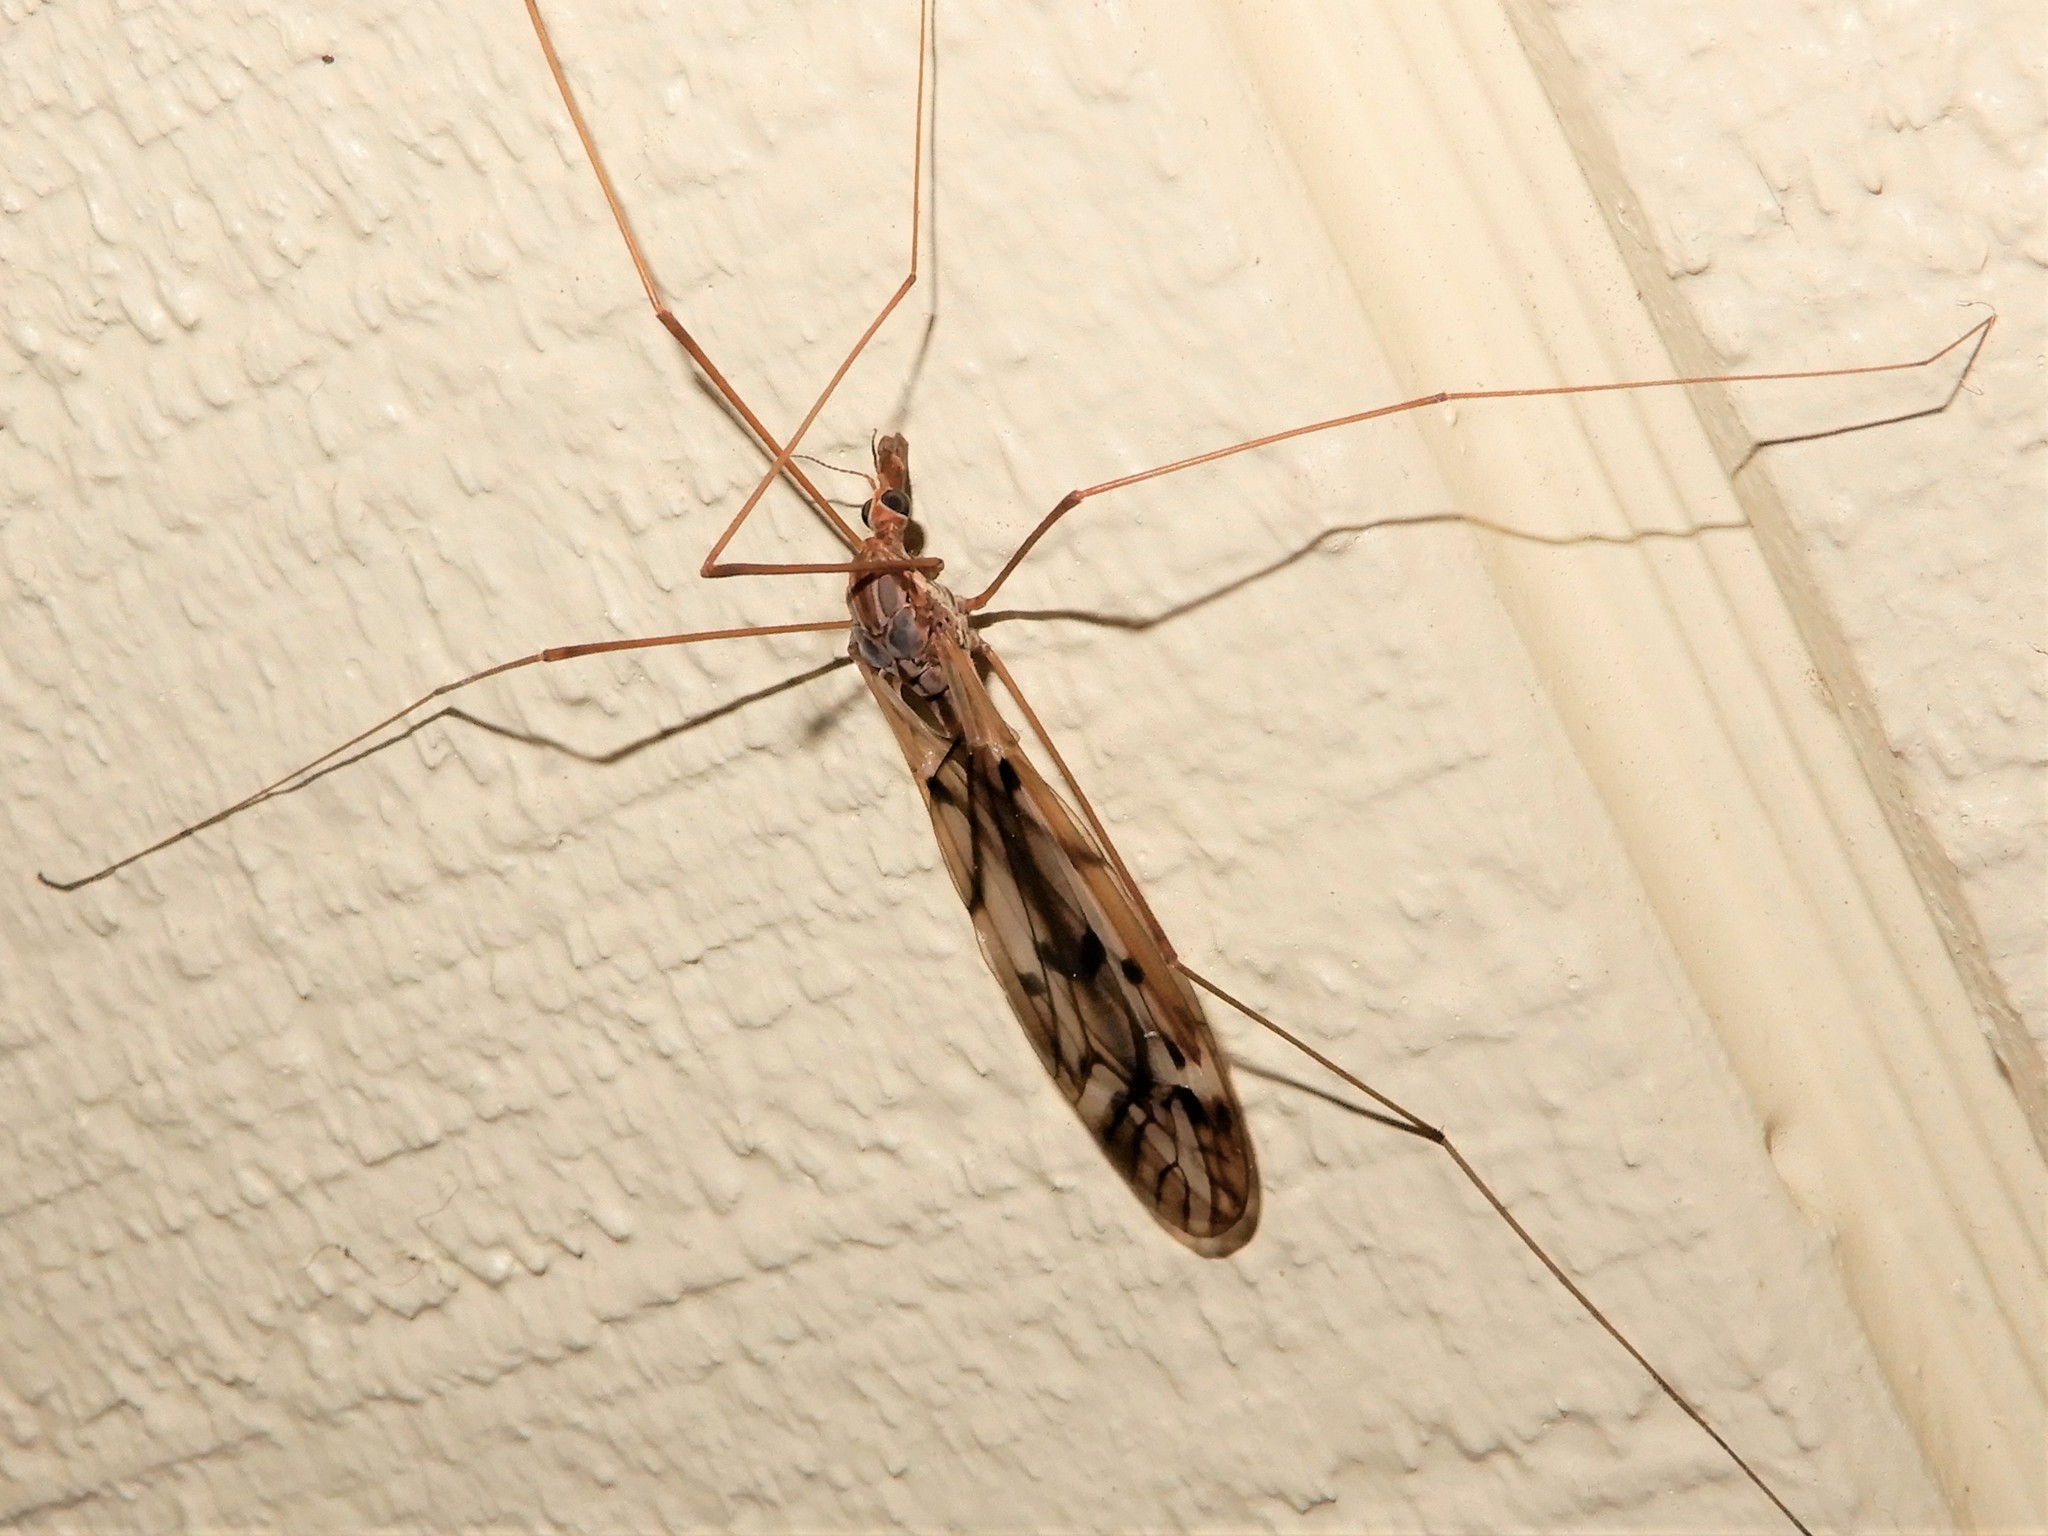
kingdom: Animalia
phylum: Arthropoda
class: Insecta
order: Diptera
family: Tipulidae
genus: Zelandotipula
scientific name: Zelandotipula novarae
